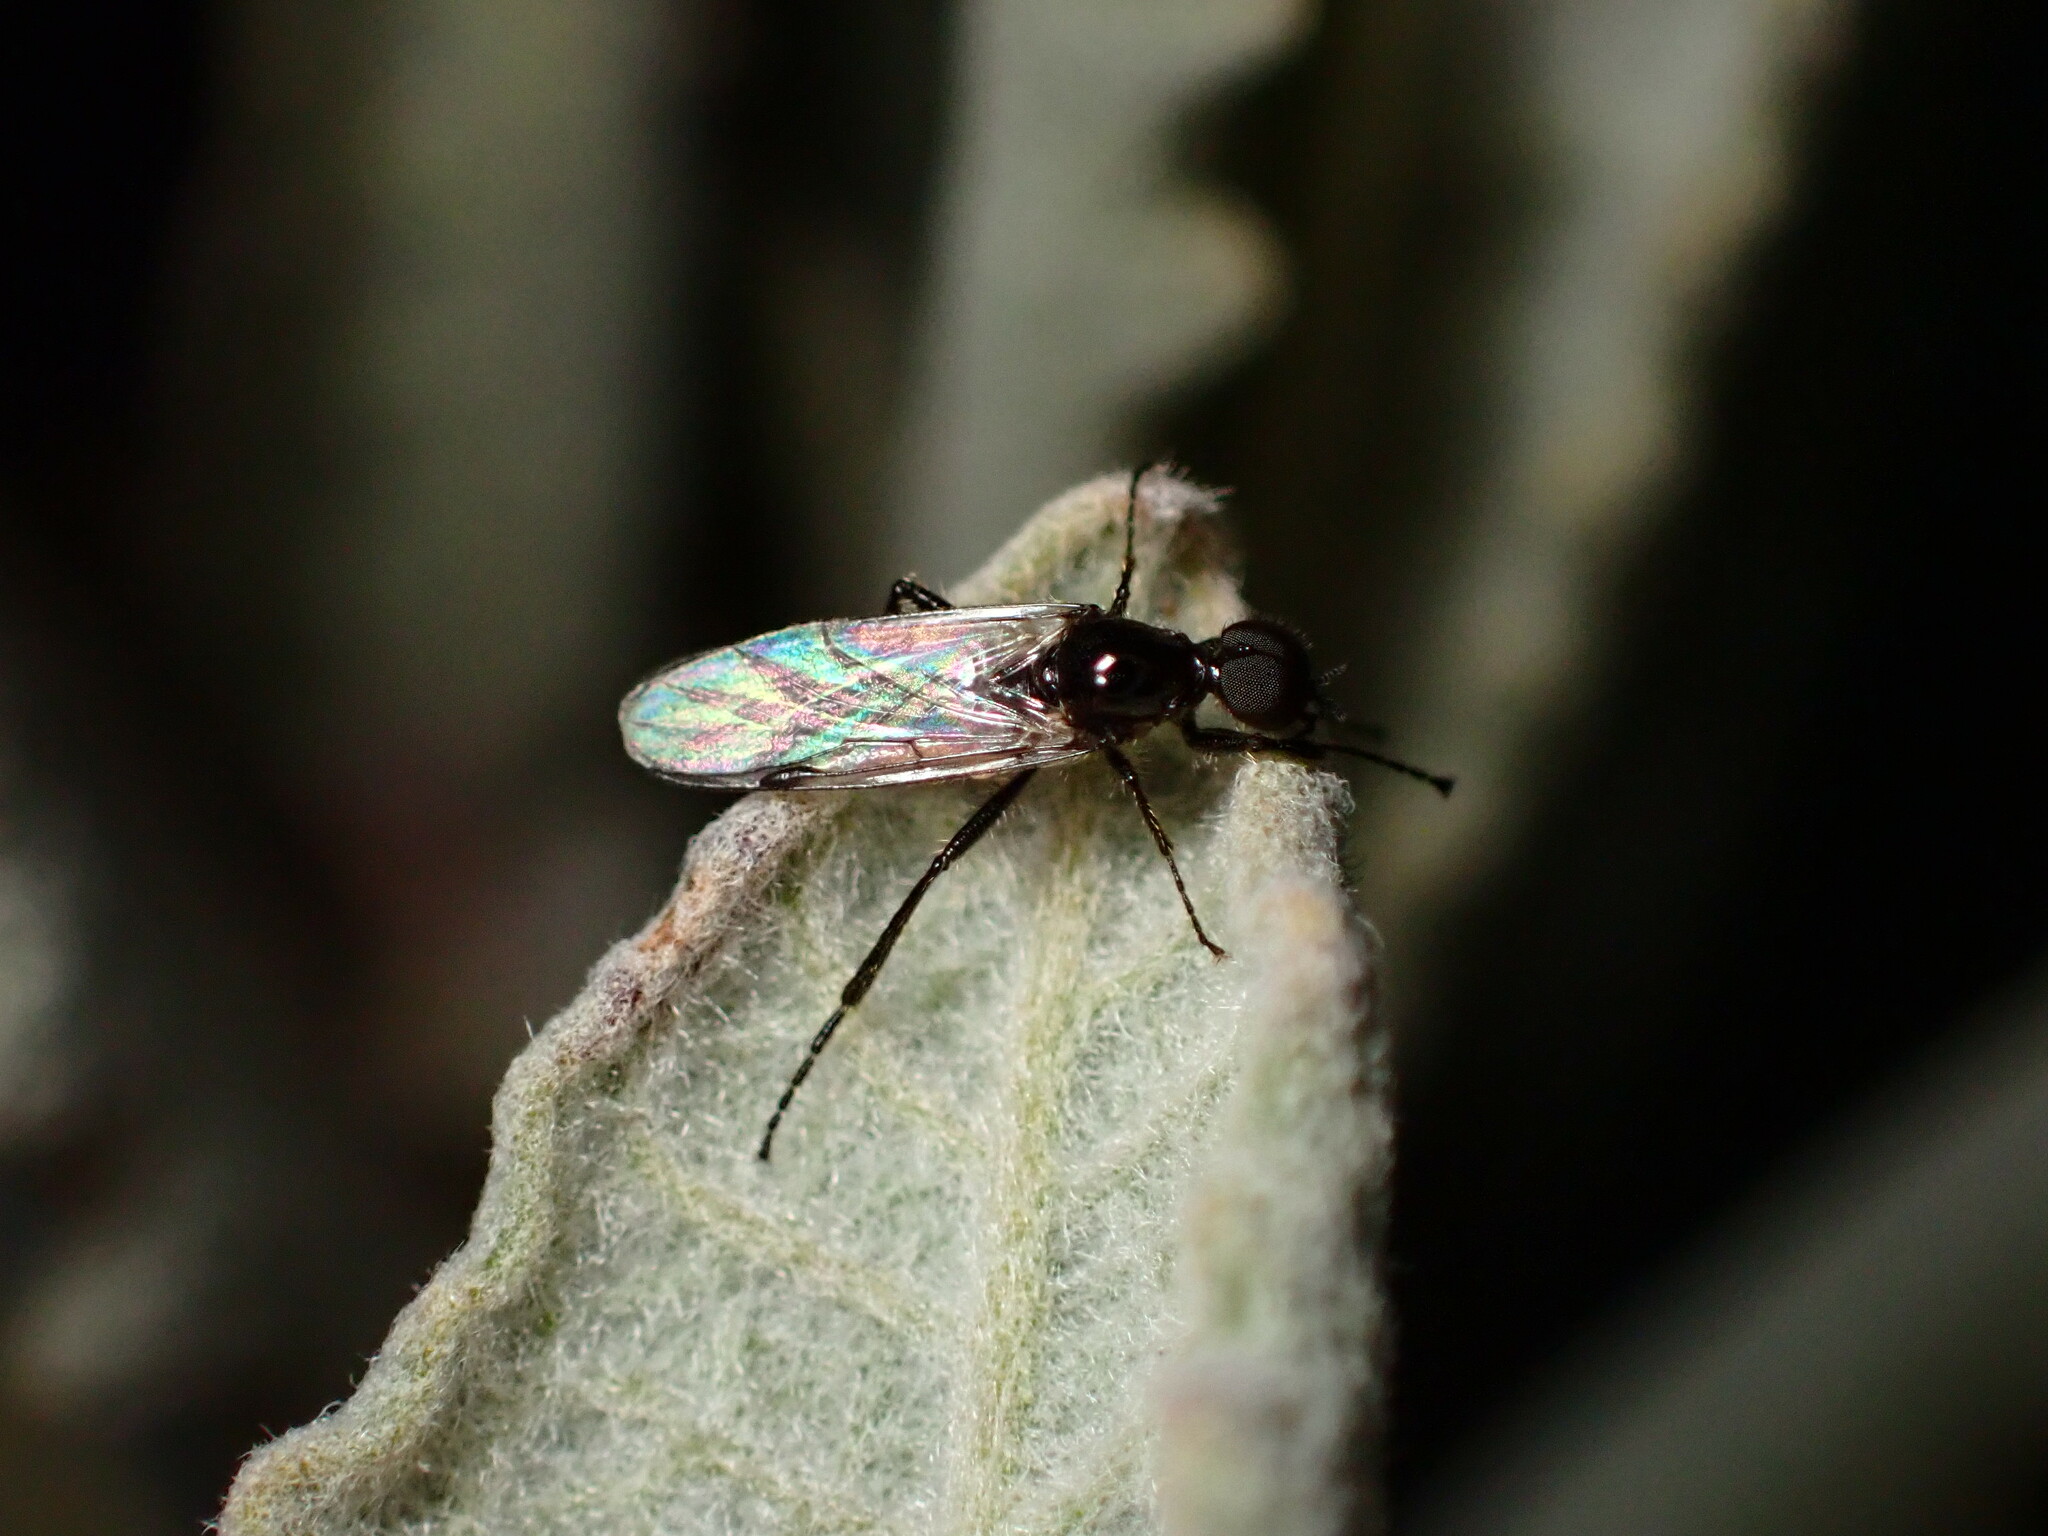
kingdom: Animalia
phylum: Arthropoda
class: Insecta
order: Diptera
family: Bibionidae
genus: Bibiodes
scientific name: Bibiodes halteralis
